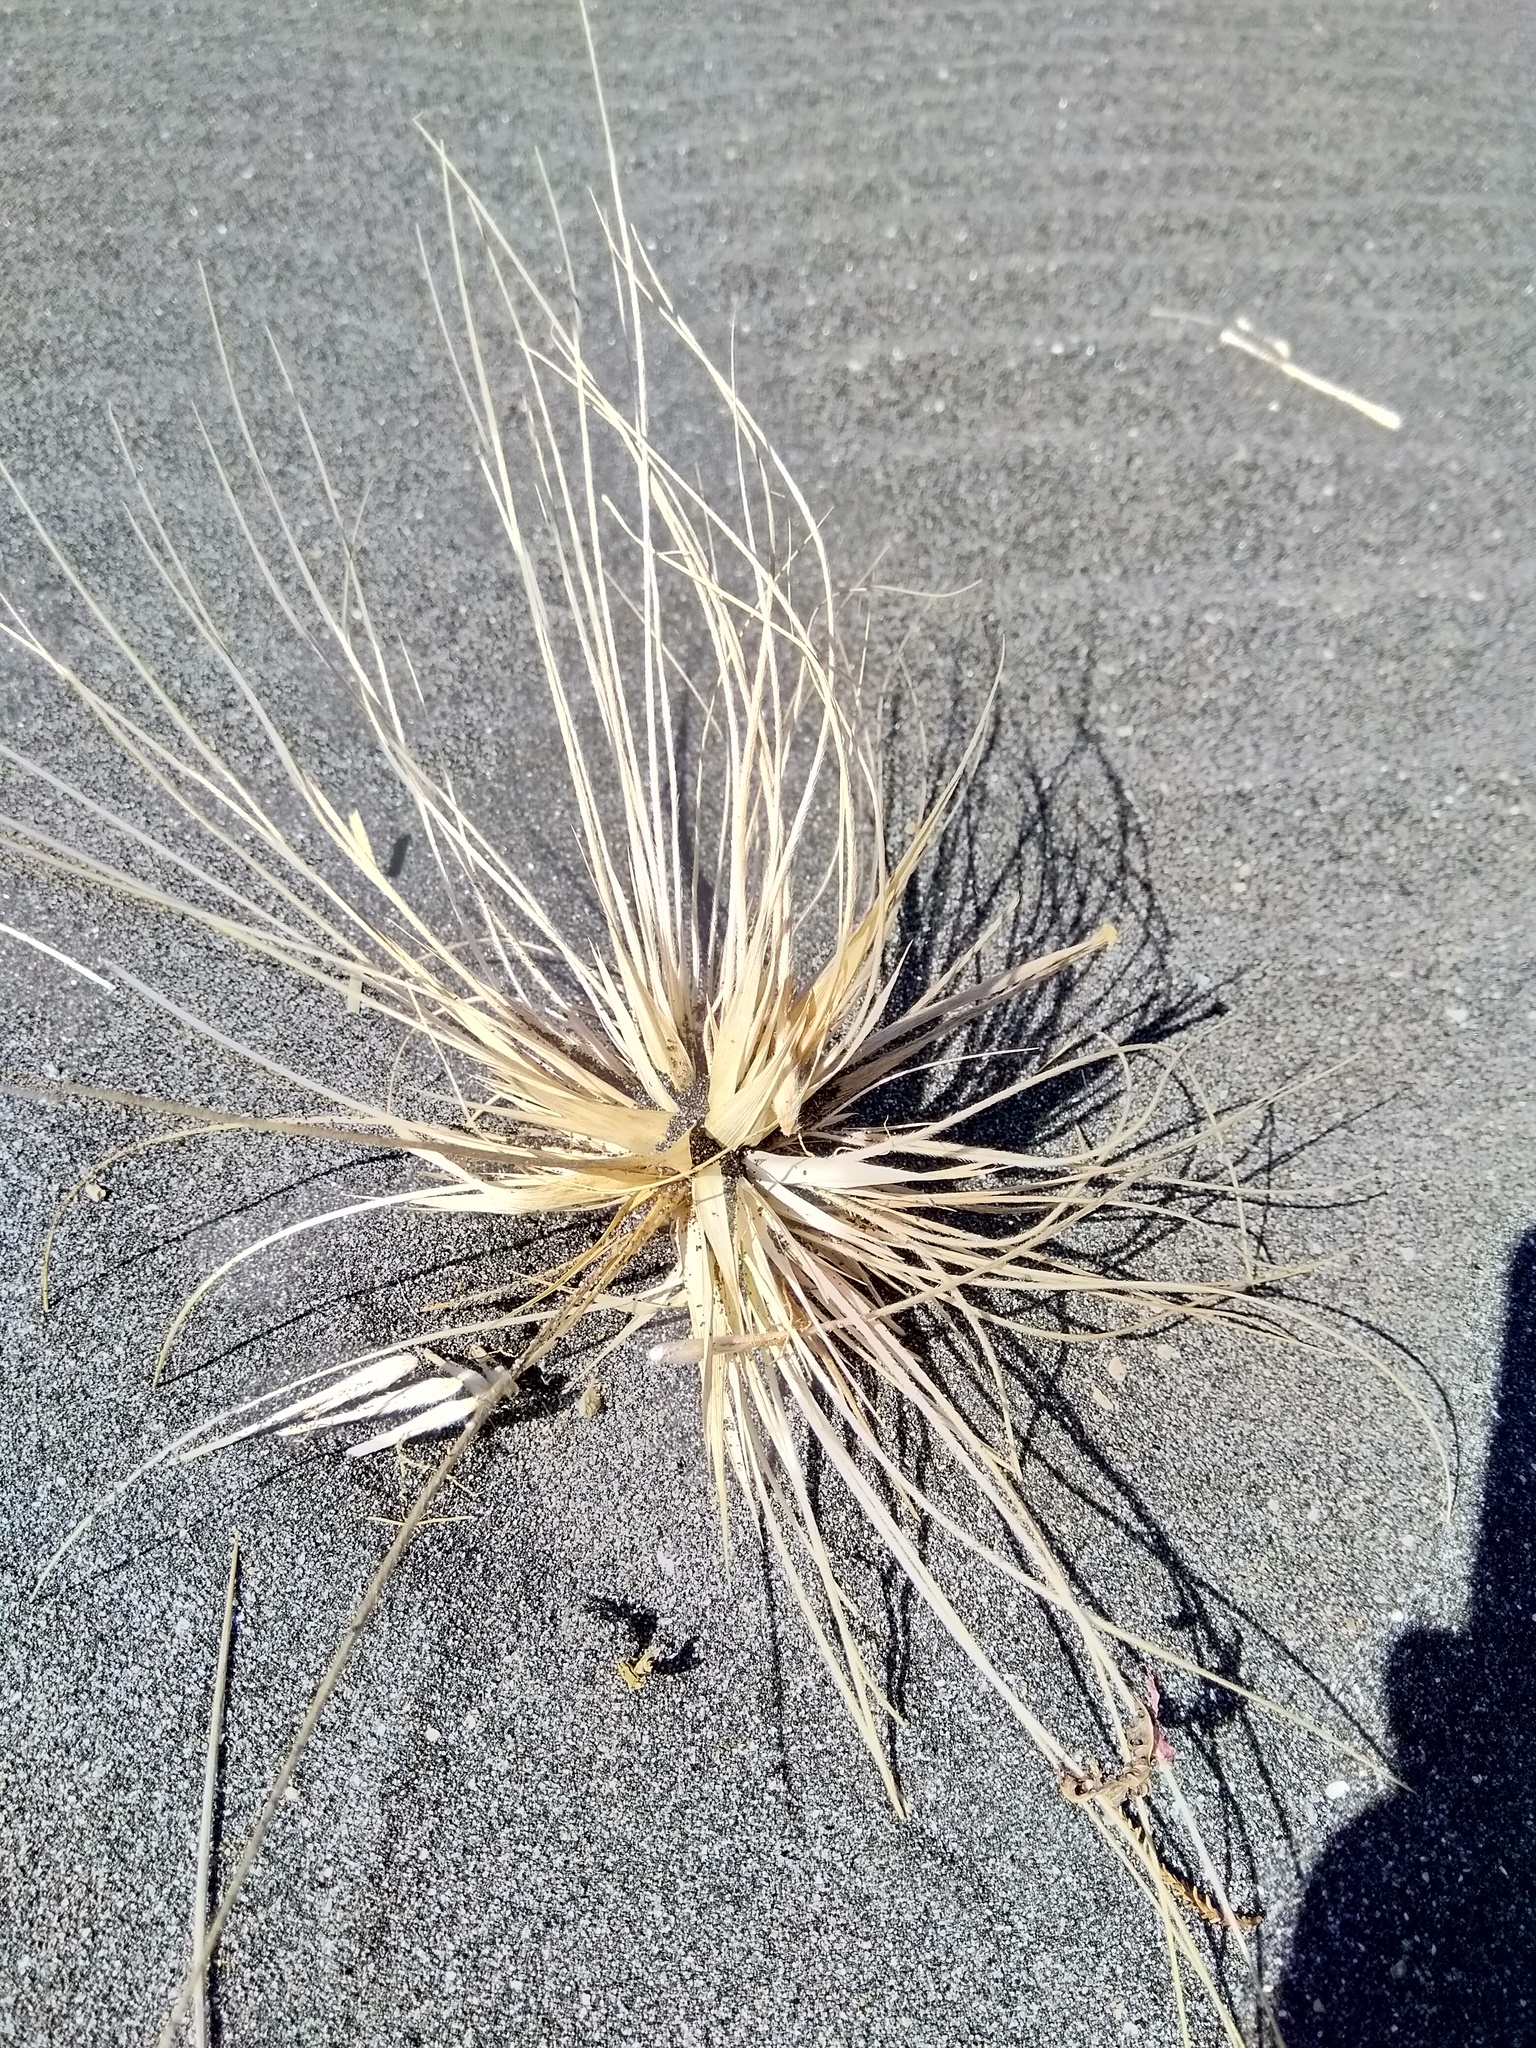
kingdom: Plantae
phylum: Tracheophyta
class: Liliopsida
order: Poales
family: Poaceae
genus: Spinifex
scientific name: Spinifex sericeus
